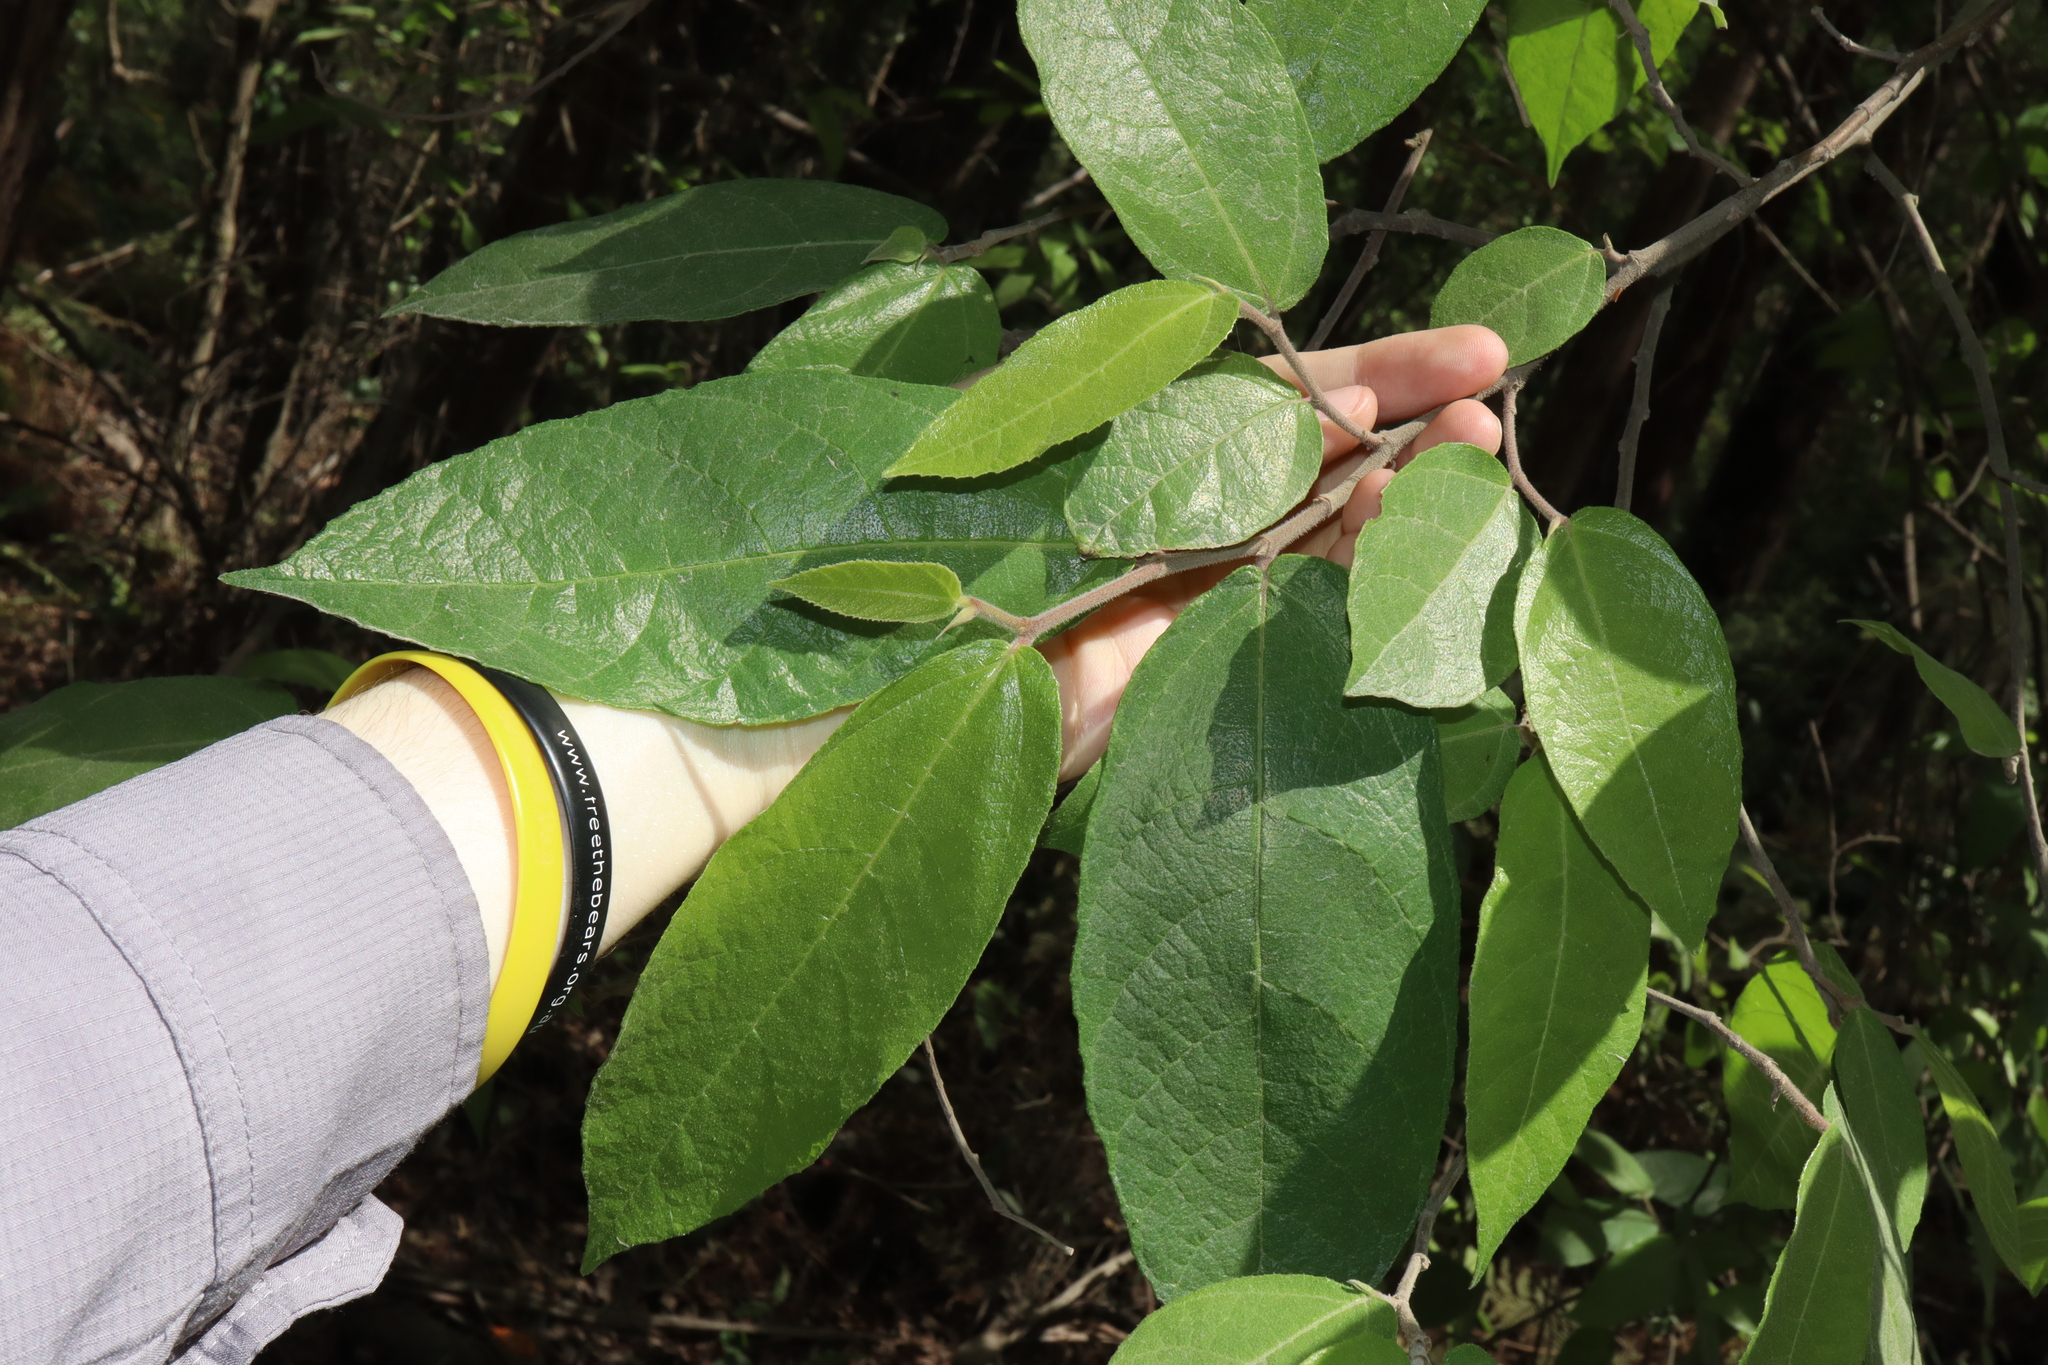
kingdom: Plantae
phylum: Tracheophyta
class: Magnoliopsida
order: Rosales
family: Moraceae
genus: Ficus
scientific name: Ficus coronata
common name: Creek sandpaper fig
